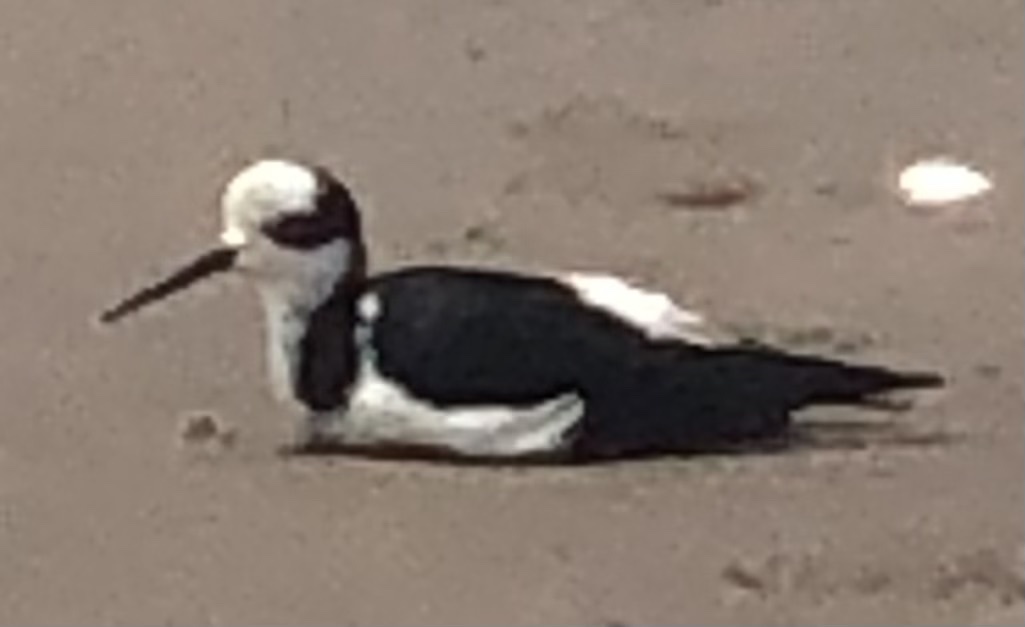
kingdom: Animalia
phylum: Chordata
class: Aves
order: Charadriiformes
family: Recurvirostridae
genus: Himantopus
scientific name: Himantopus mexicanus
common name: Black-necked stilt
